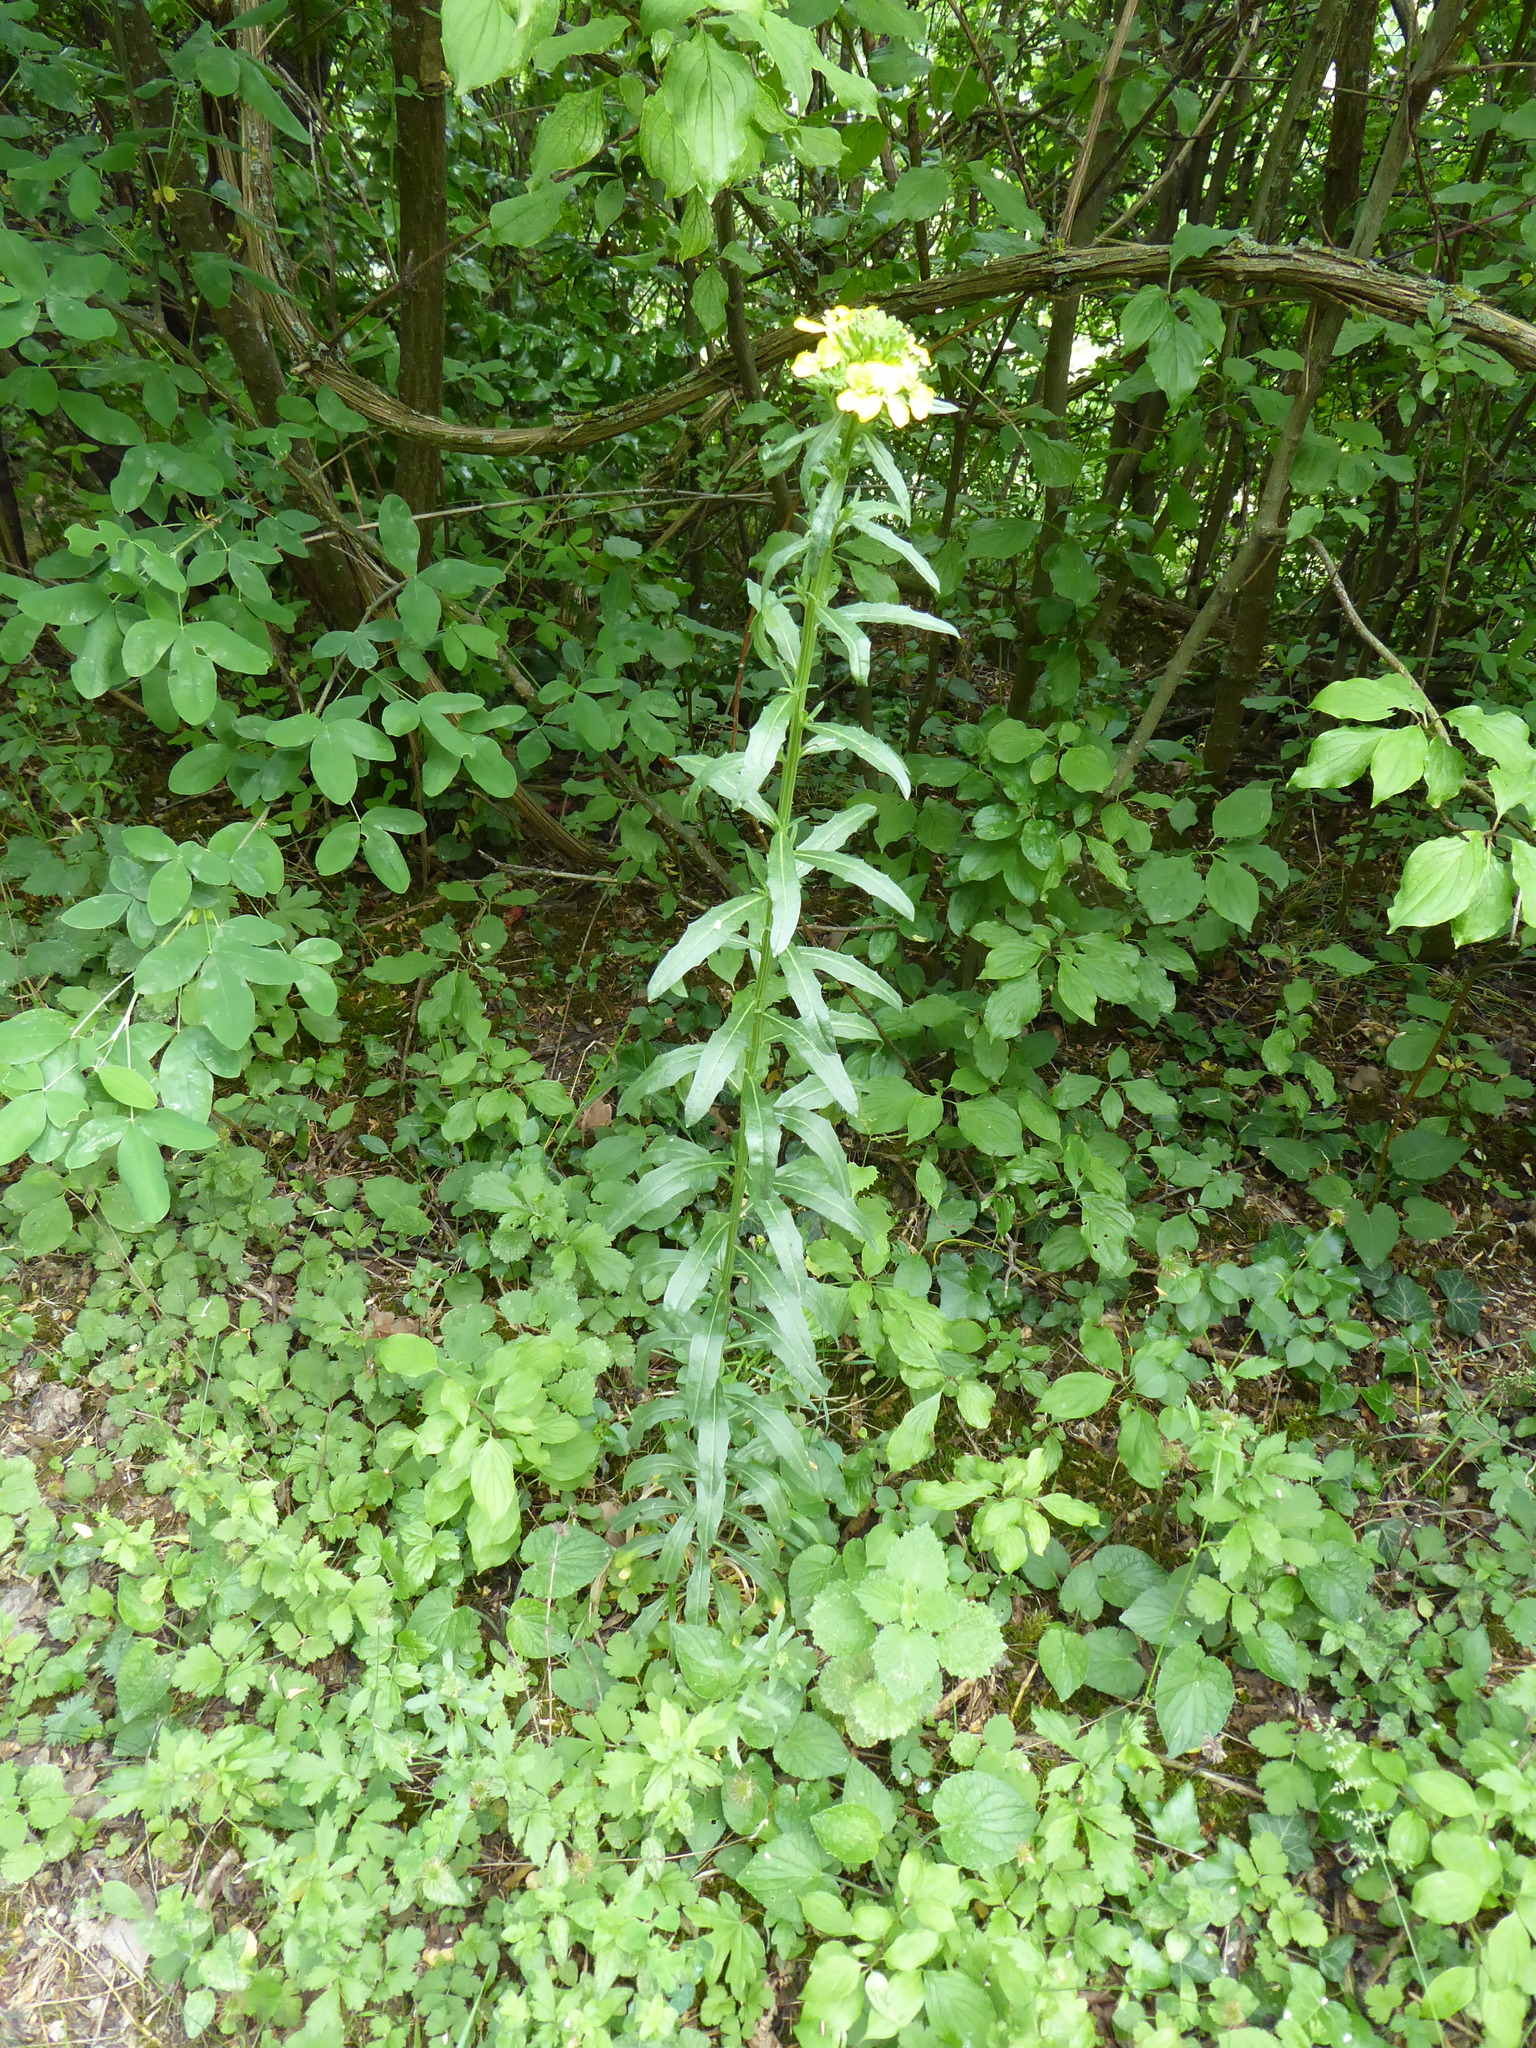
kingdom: Plantae
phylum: Tracheophyta
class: Magnoliopsida
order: Brassicales
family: Brassicaceae
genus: Erysimum
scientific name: Erysimum odoratum
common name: Smelly wallflower
